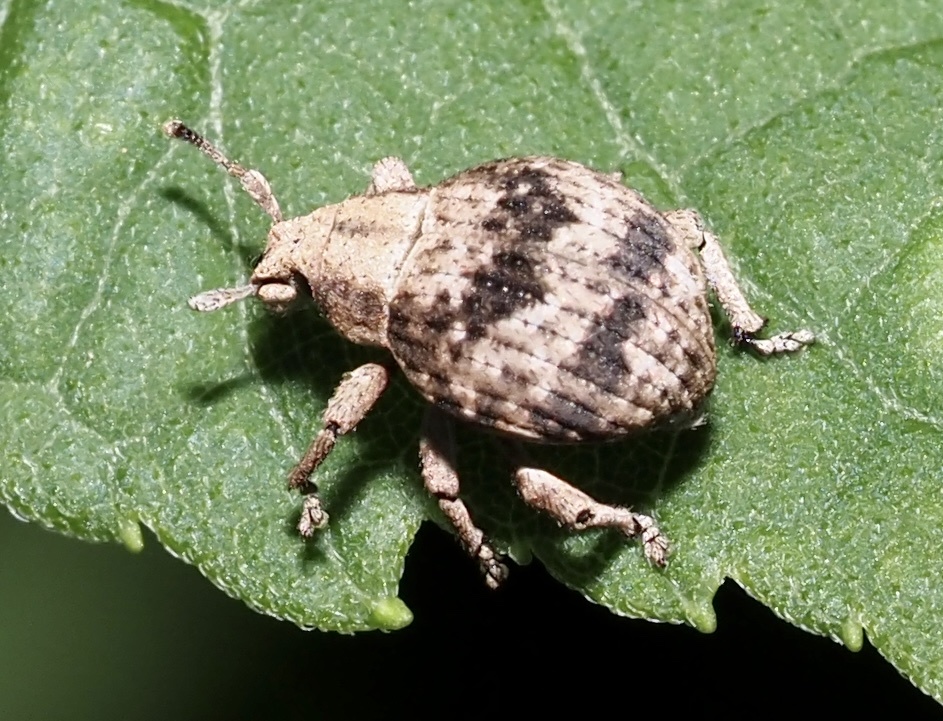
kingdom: Animalia
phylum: Arthropoda
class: Insecta
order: Coleoptera
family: Curculionidae
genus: Pseudocneorhinus
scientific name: Pseudocneorhinus bifasciatus
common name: Two-banded japanese weevil
